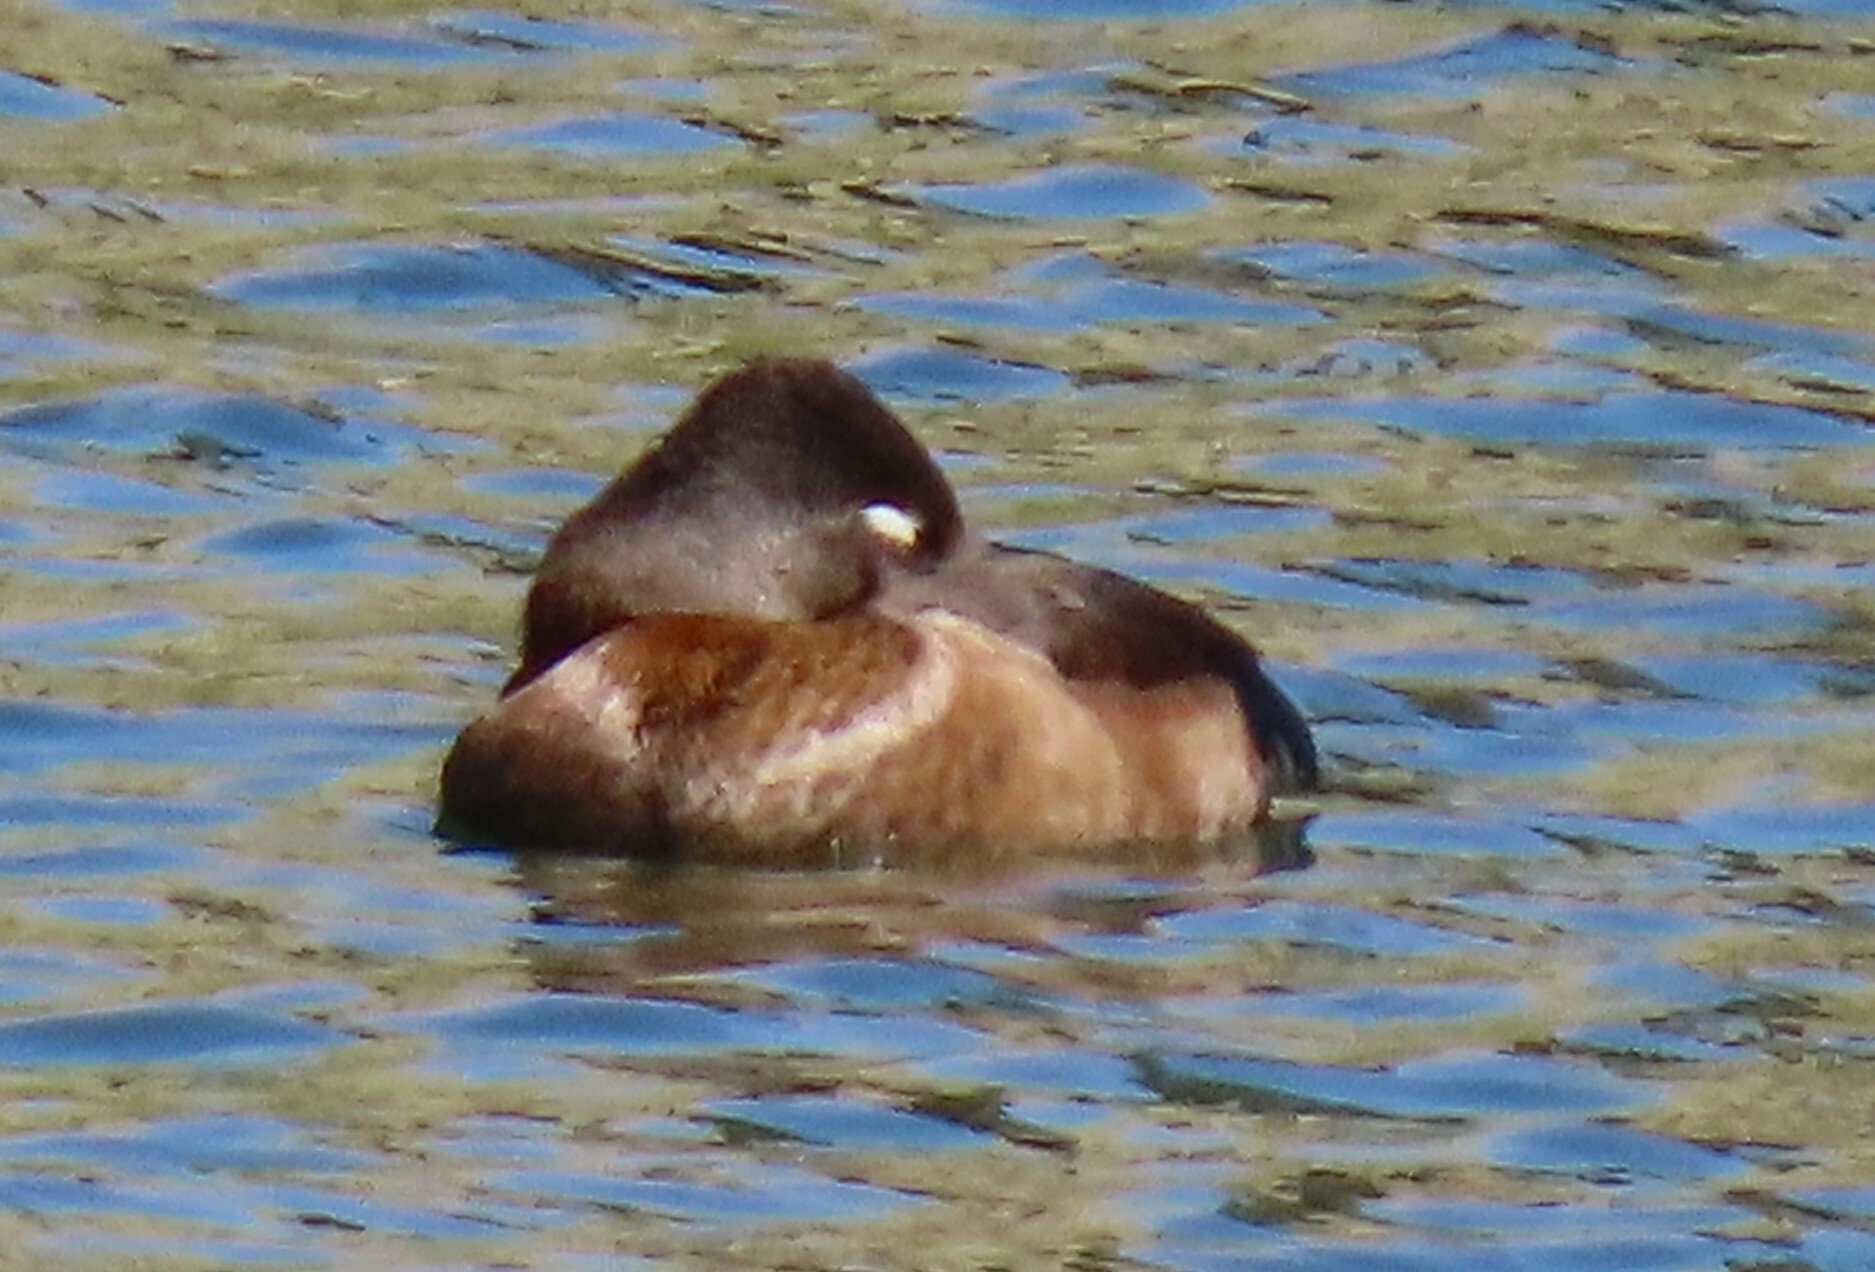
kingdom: Animalia
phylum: Chordata
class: Aves
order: Anseriformes
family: Anatidae
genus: Aythya
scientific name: Aythya collaris
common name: Ring-necked duck
